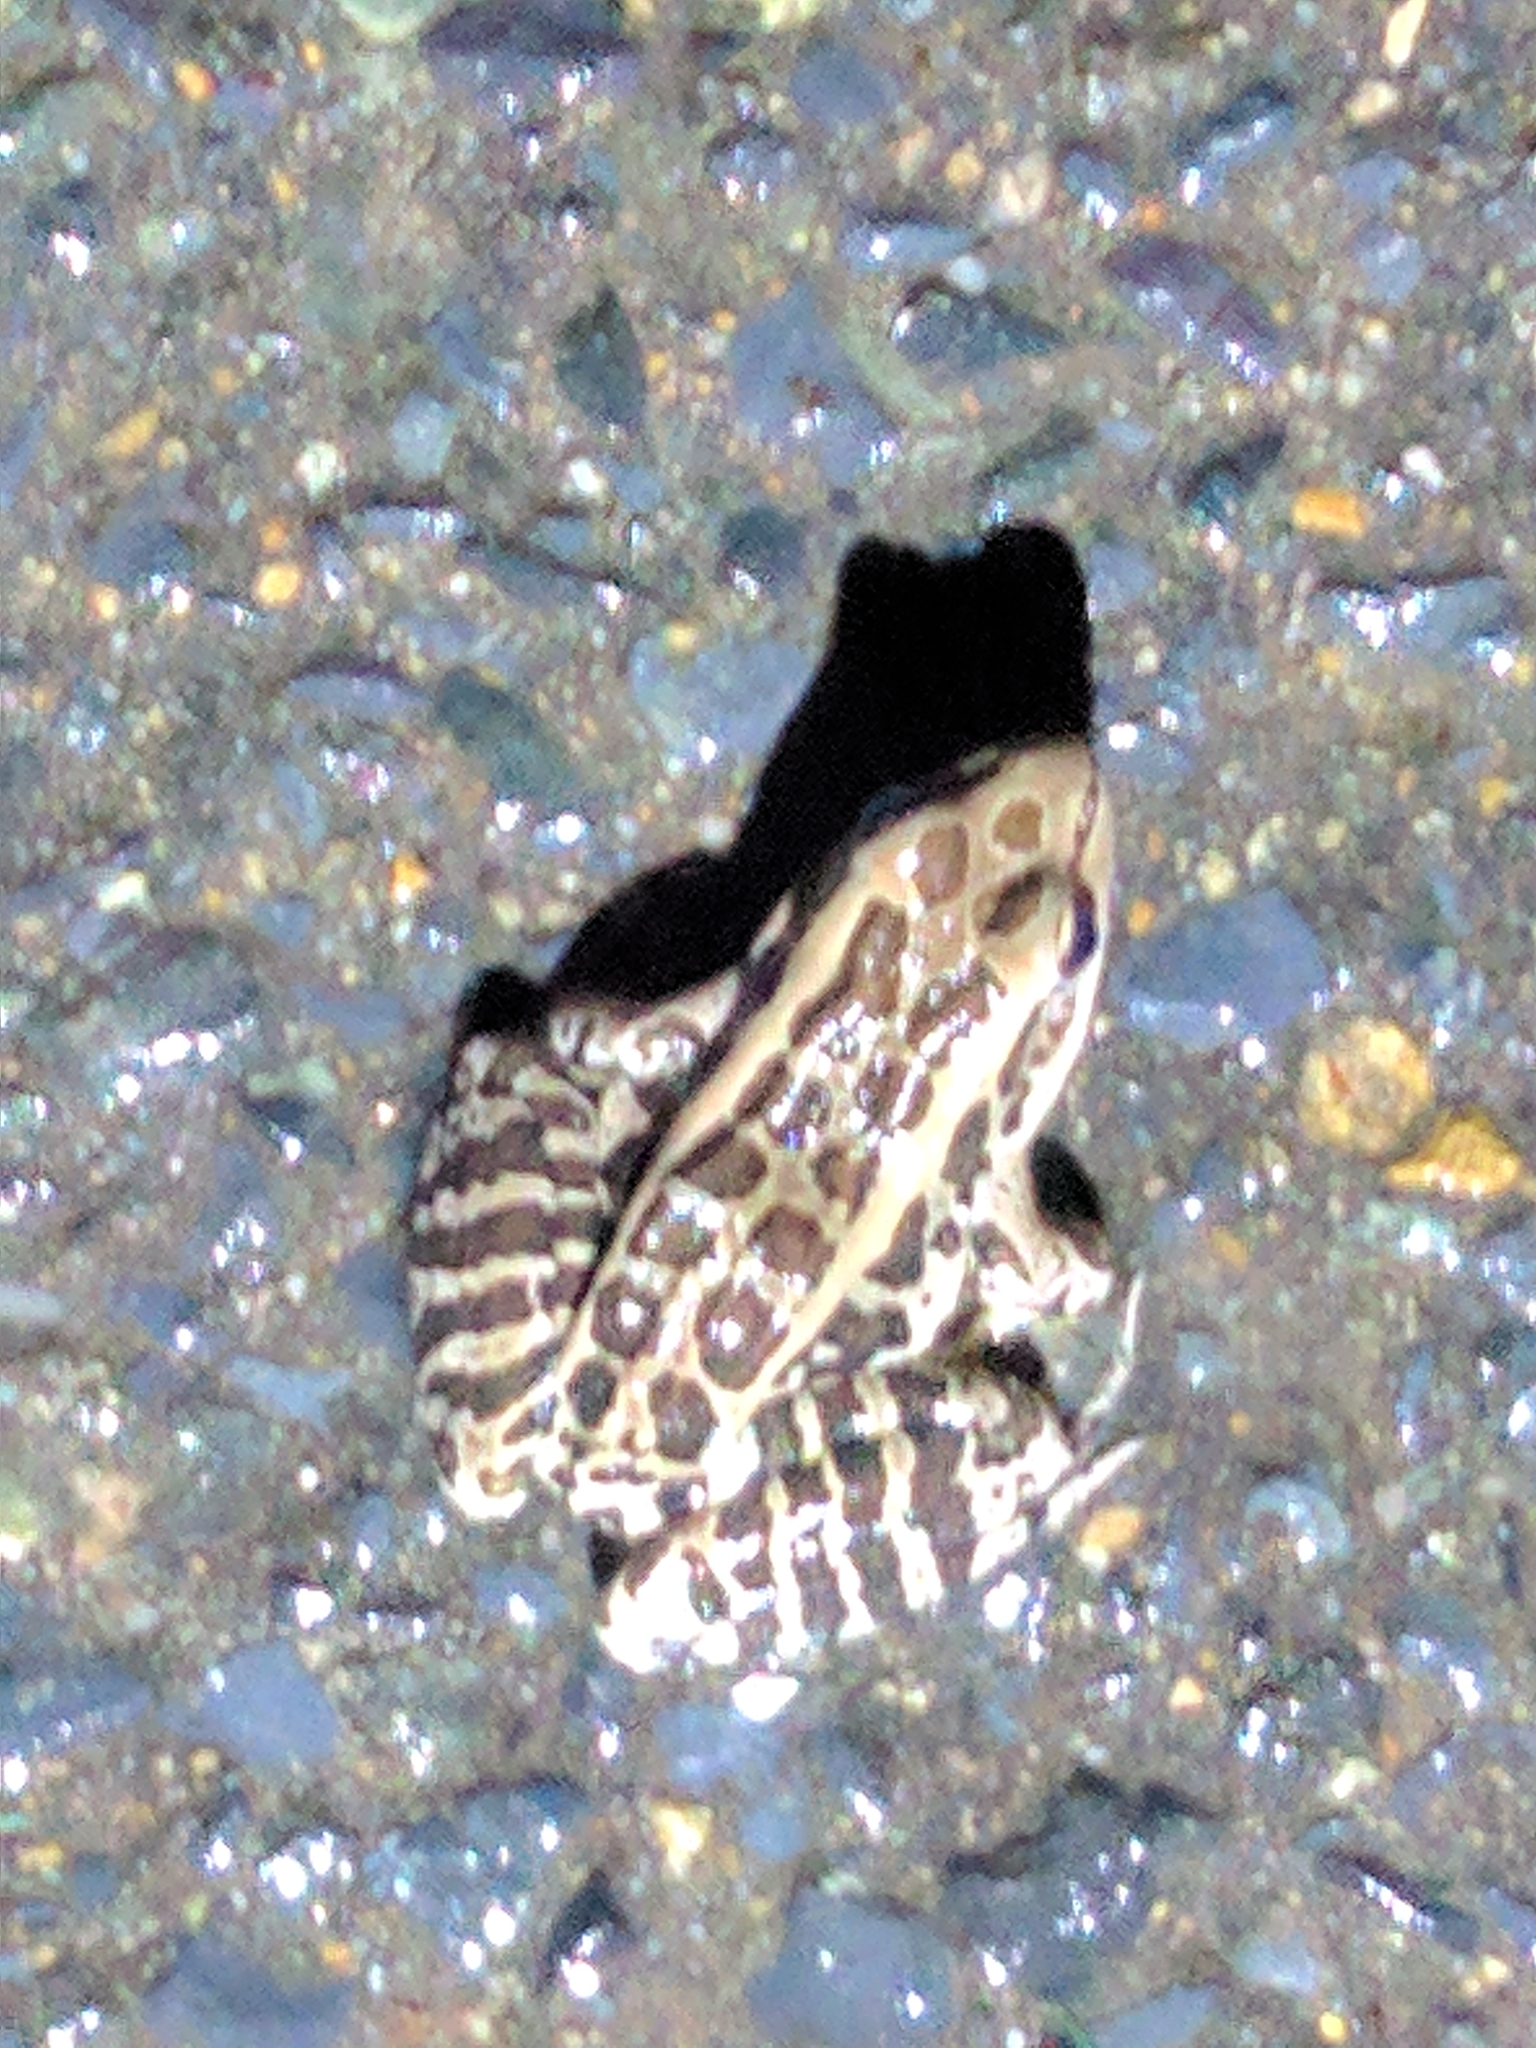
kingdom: Animalia
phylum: Chordata
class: Amphibia
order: Anura
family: Ranidae
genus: Lithobates
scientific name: Lithobates palustris
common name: Pickerel frog
